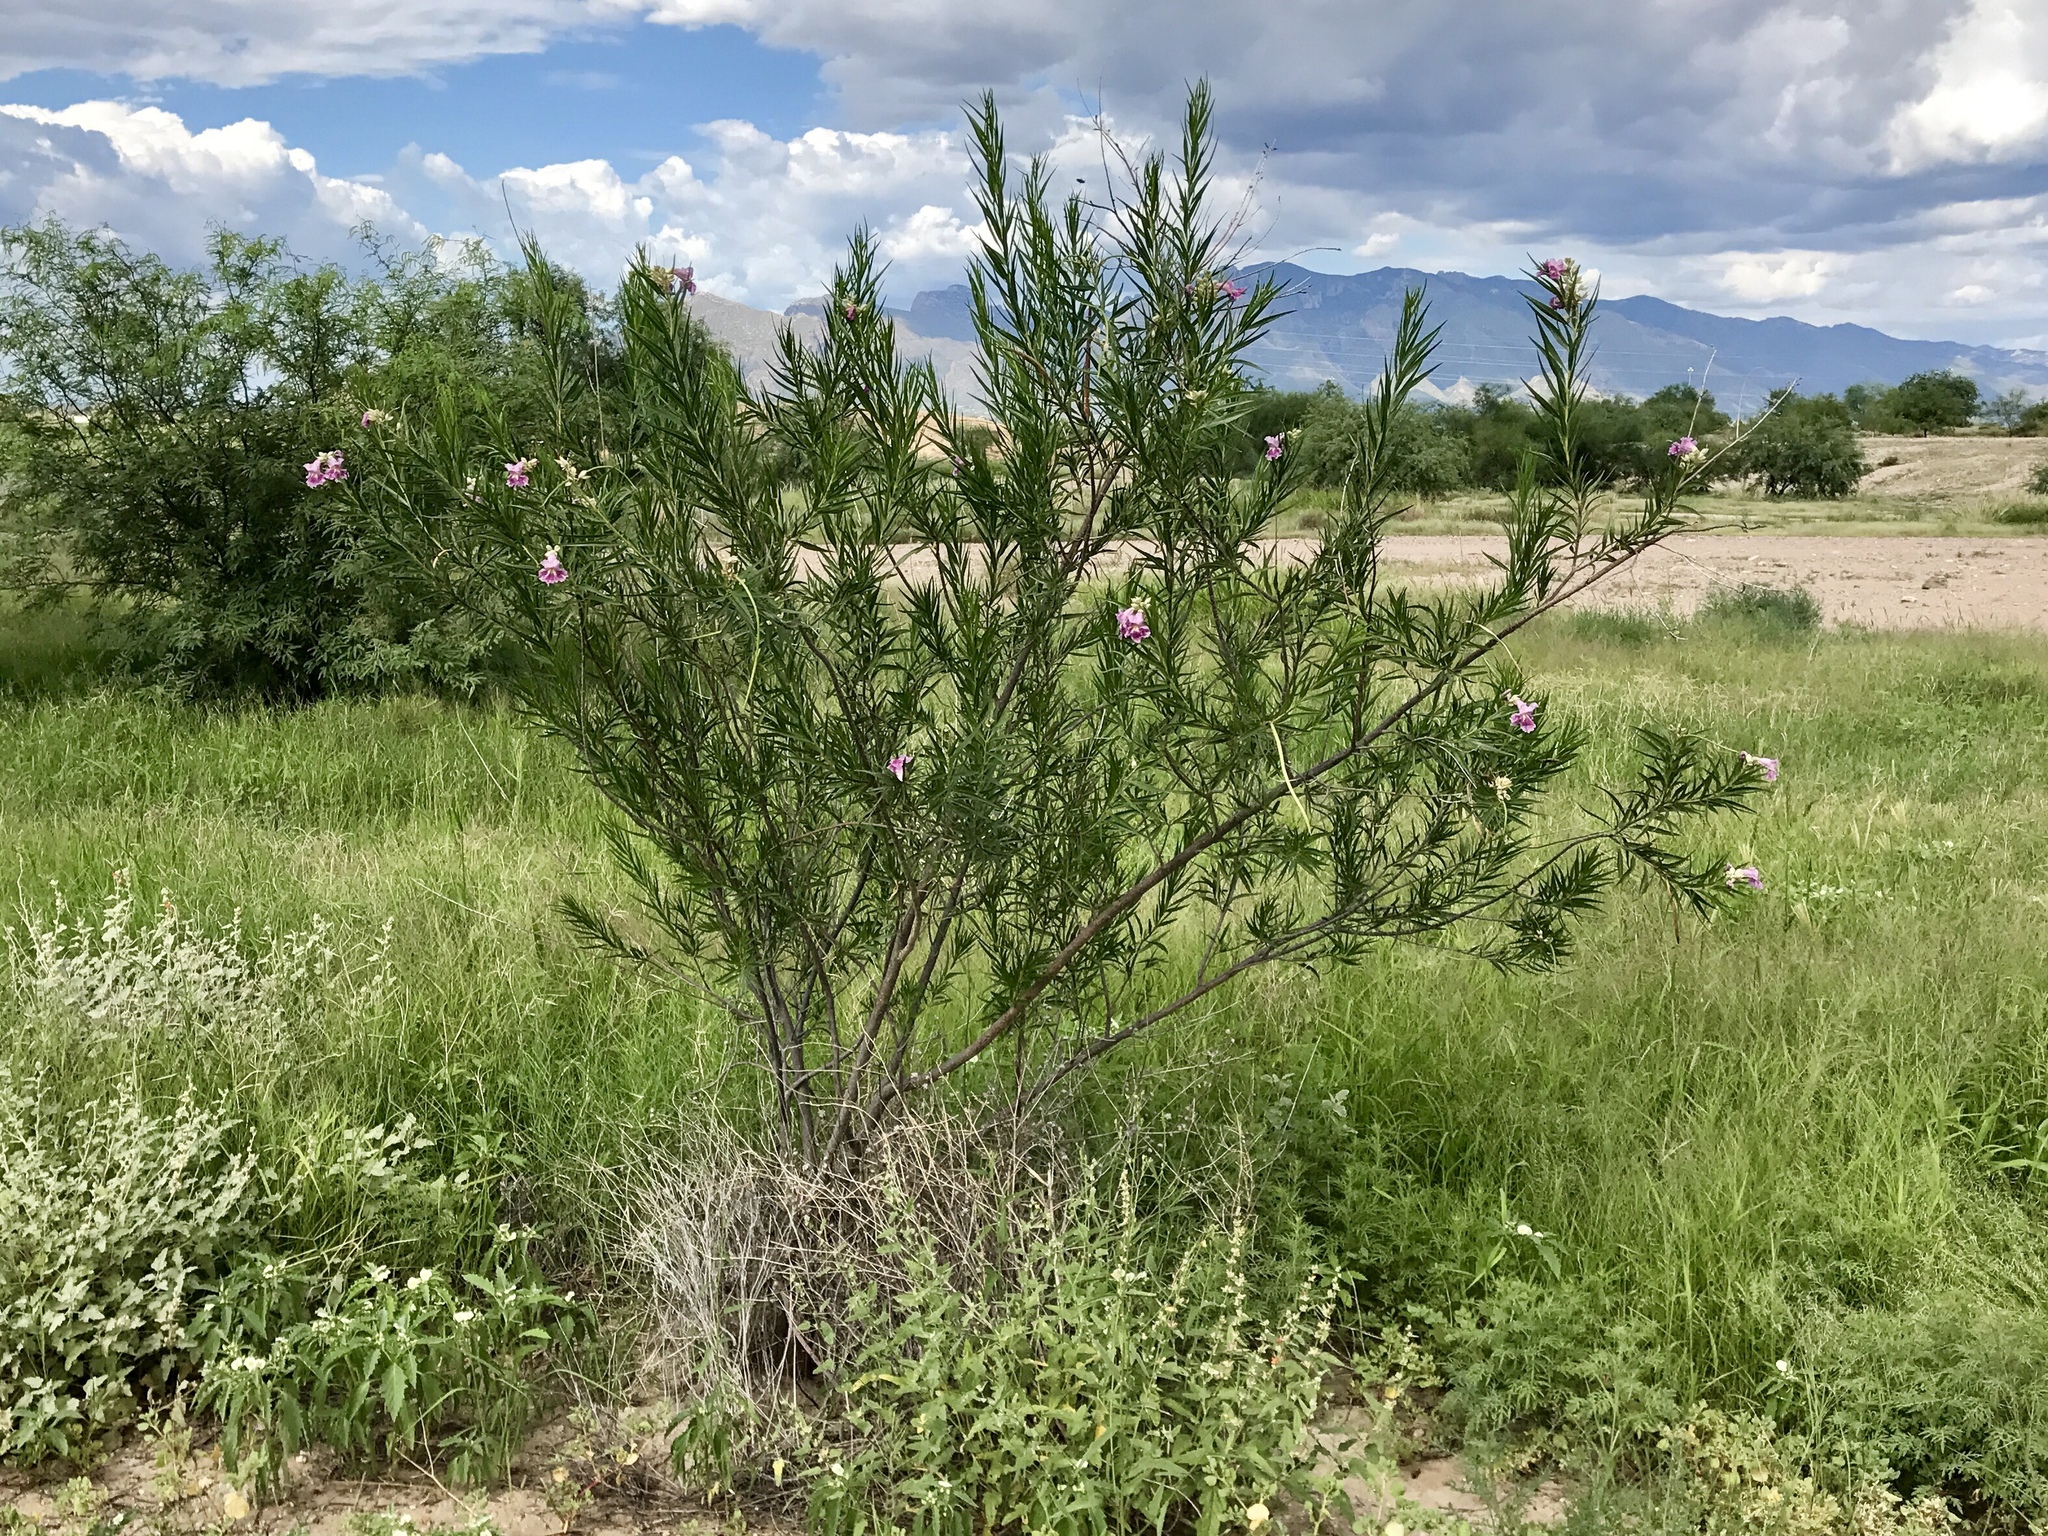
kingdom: Plantae
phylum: Tracheophyta
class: Magnoliopsida
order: Lamiales
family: Bignoniaceae
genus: Chilopsis
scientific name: Chilopsis linearis
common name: Desert-willow
